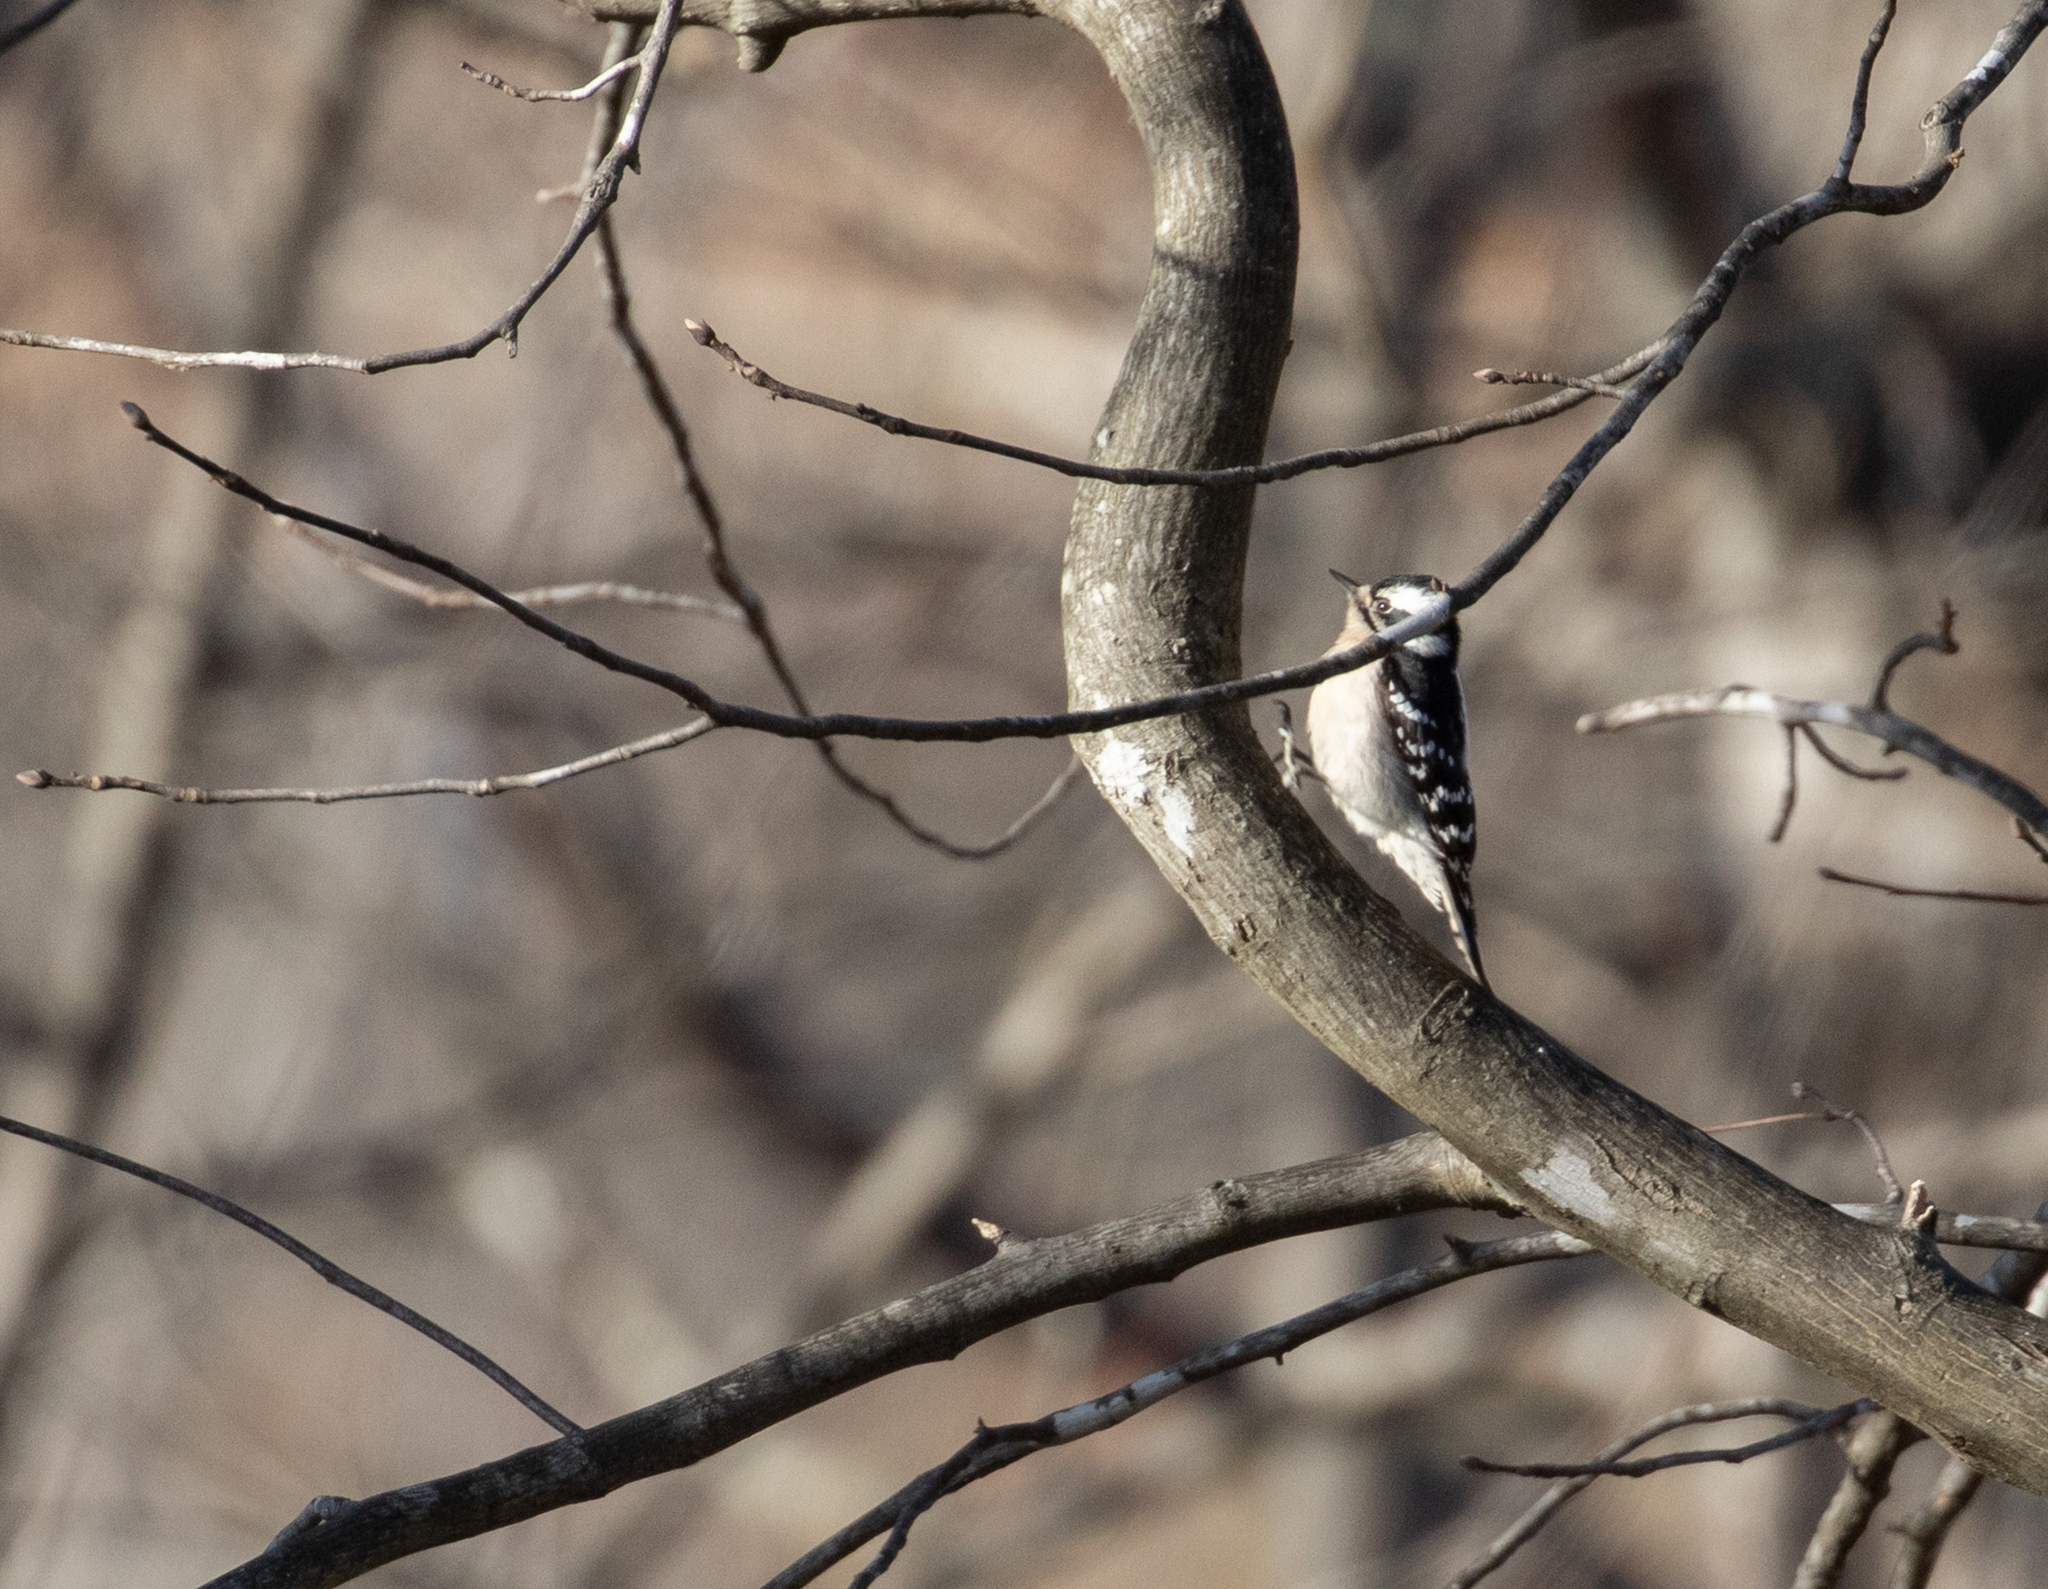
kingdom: Animalia
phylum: Chordata
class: Aves
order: Piciformes
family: Picidae
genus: Dryobates
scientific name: Dryobates pubescens
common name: Downy woodpecker
